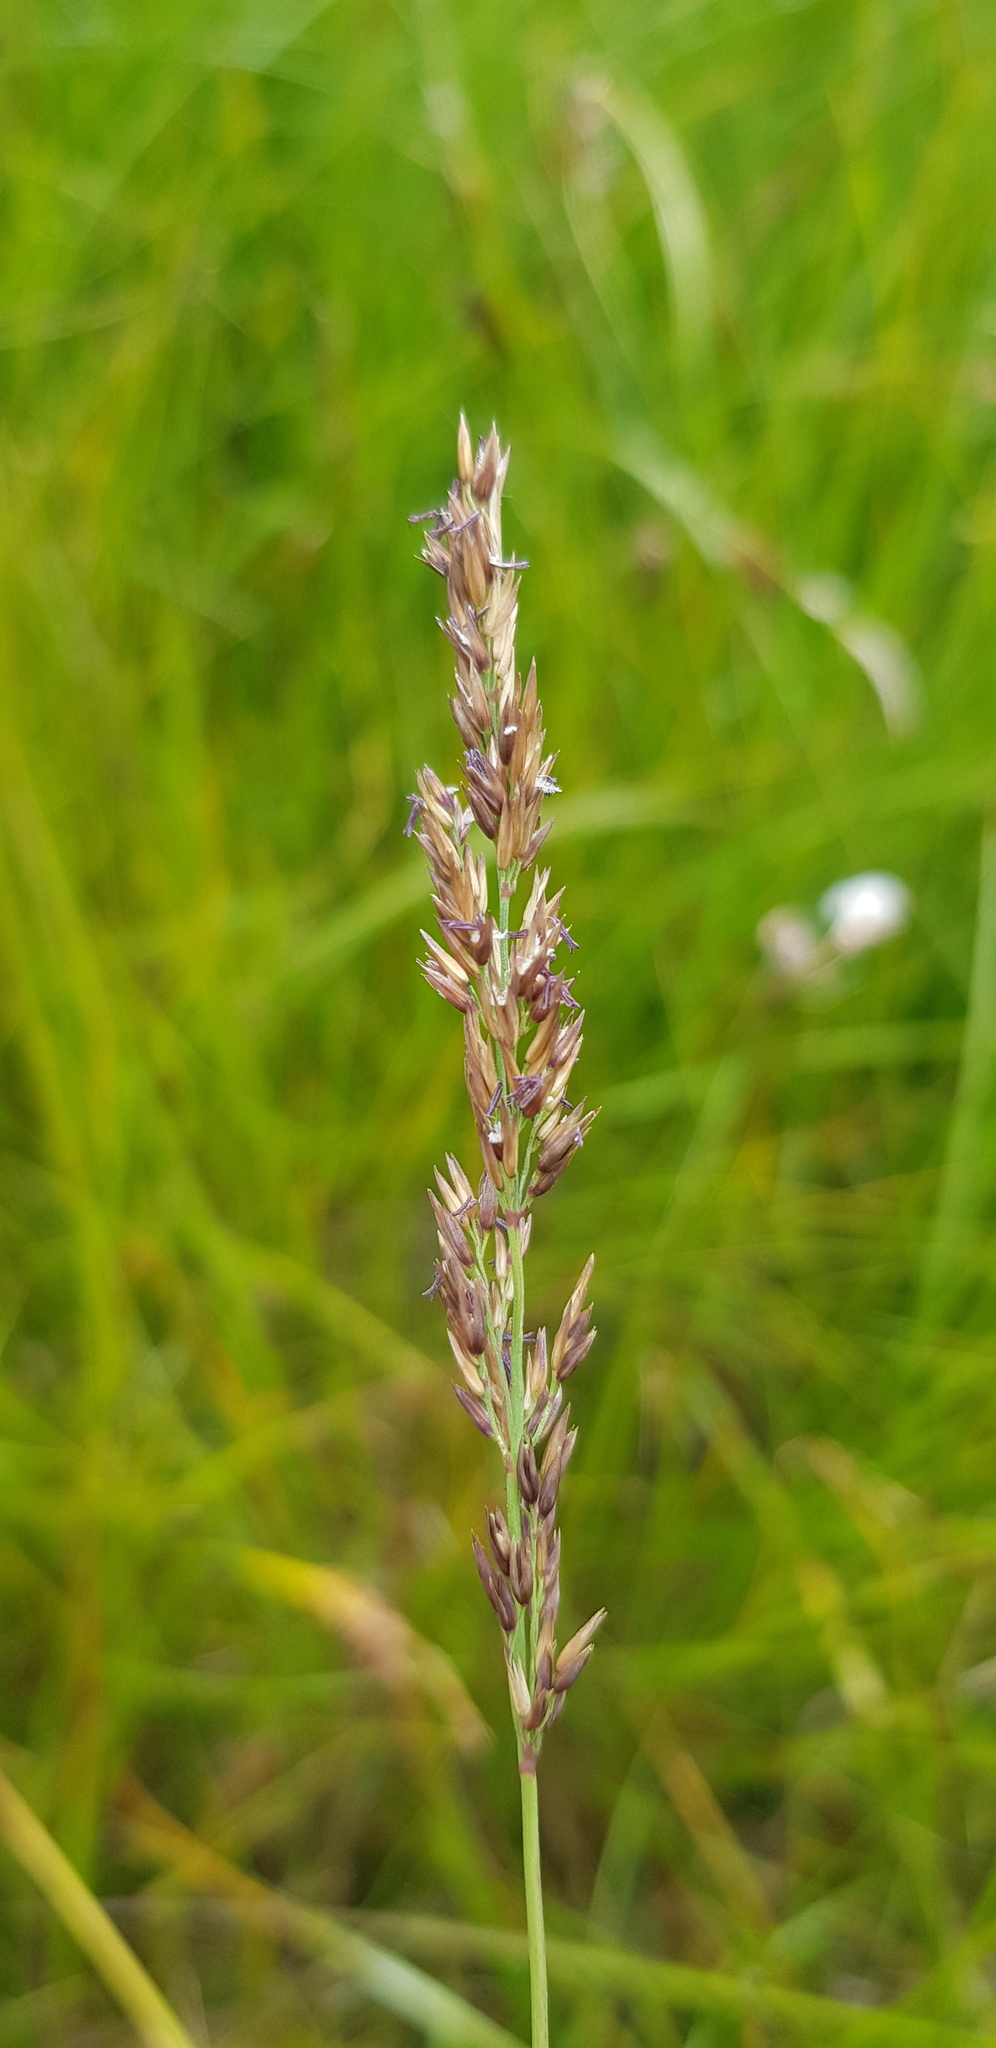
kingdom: Plantae
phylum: Tracheophyta
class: Liliopsida
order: Poales
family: Poaceae
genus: Calamagrostis
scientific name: Calamagrostis purpurea
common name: Scandinavian small-reed
